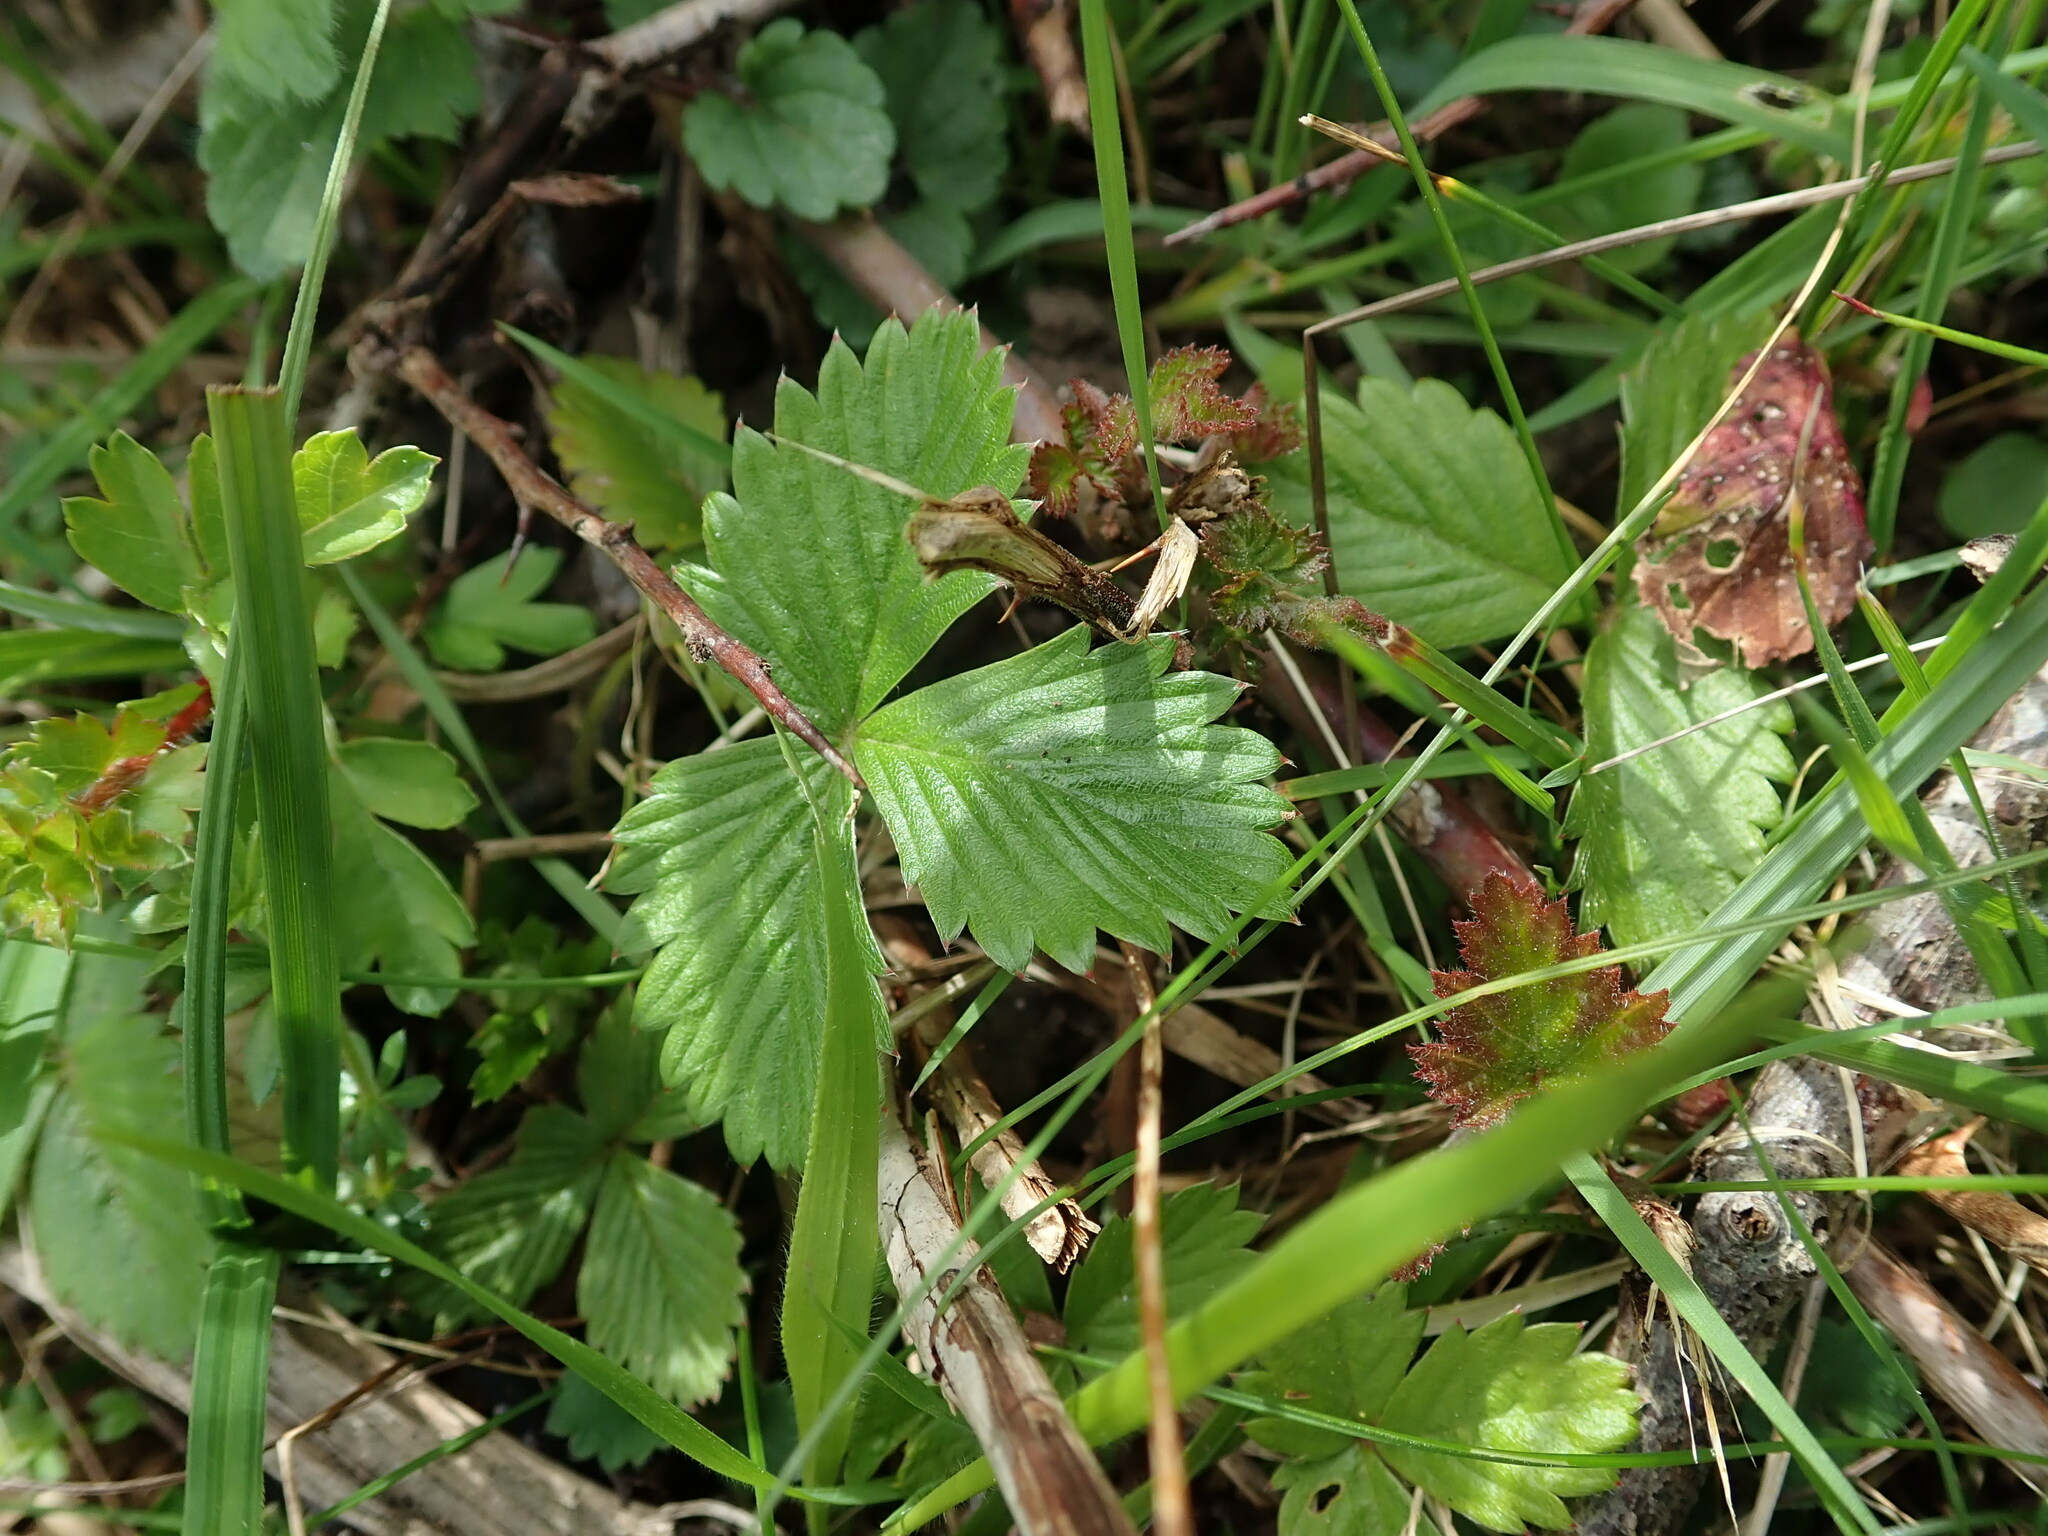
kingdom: Plantae
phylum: Tracheophyta
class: Magnoliopsida
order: Rosales
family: Rosaceae
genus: Fragaria
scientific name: Fragaria vesca
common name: Wild strawberry
